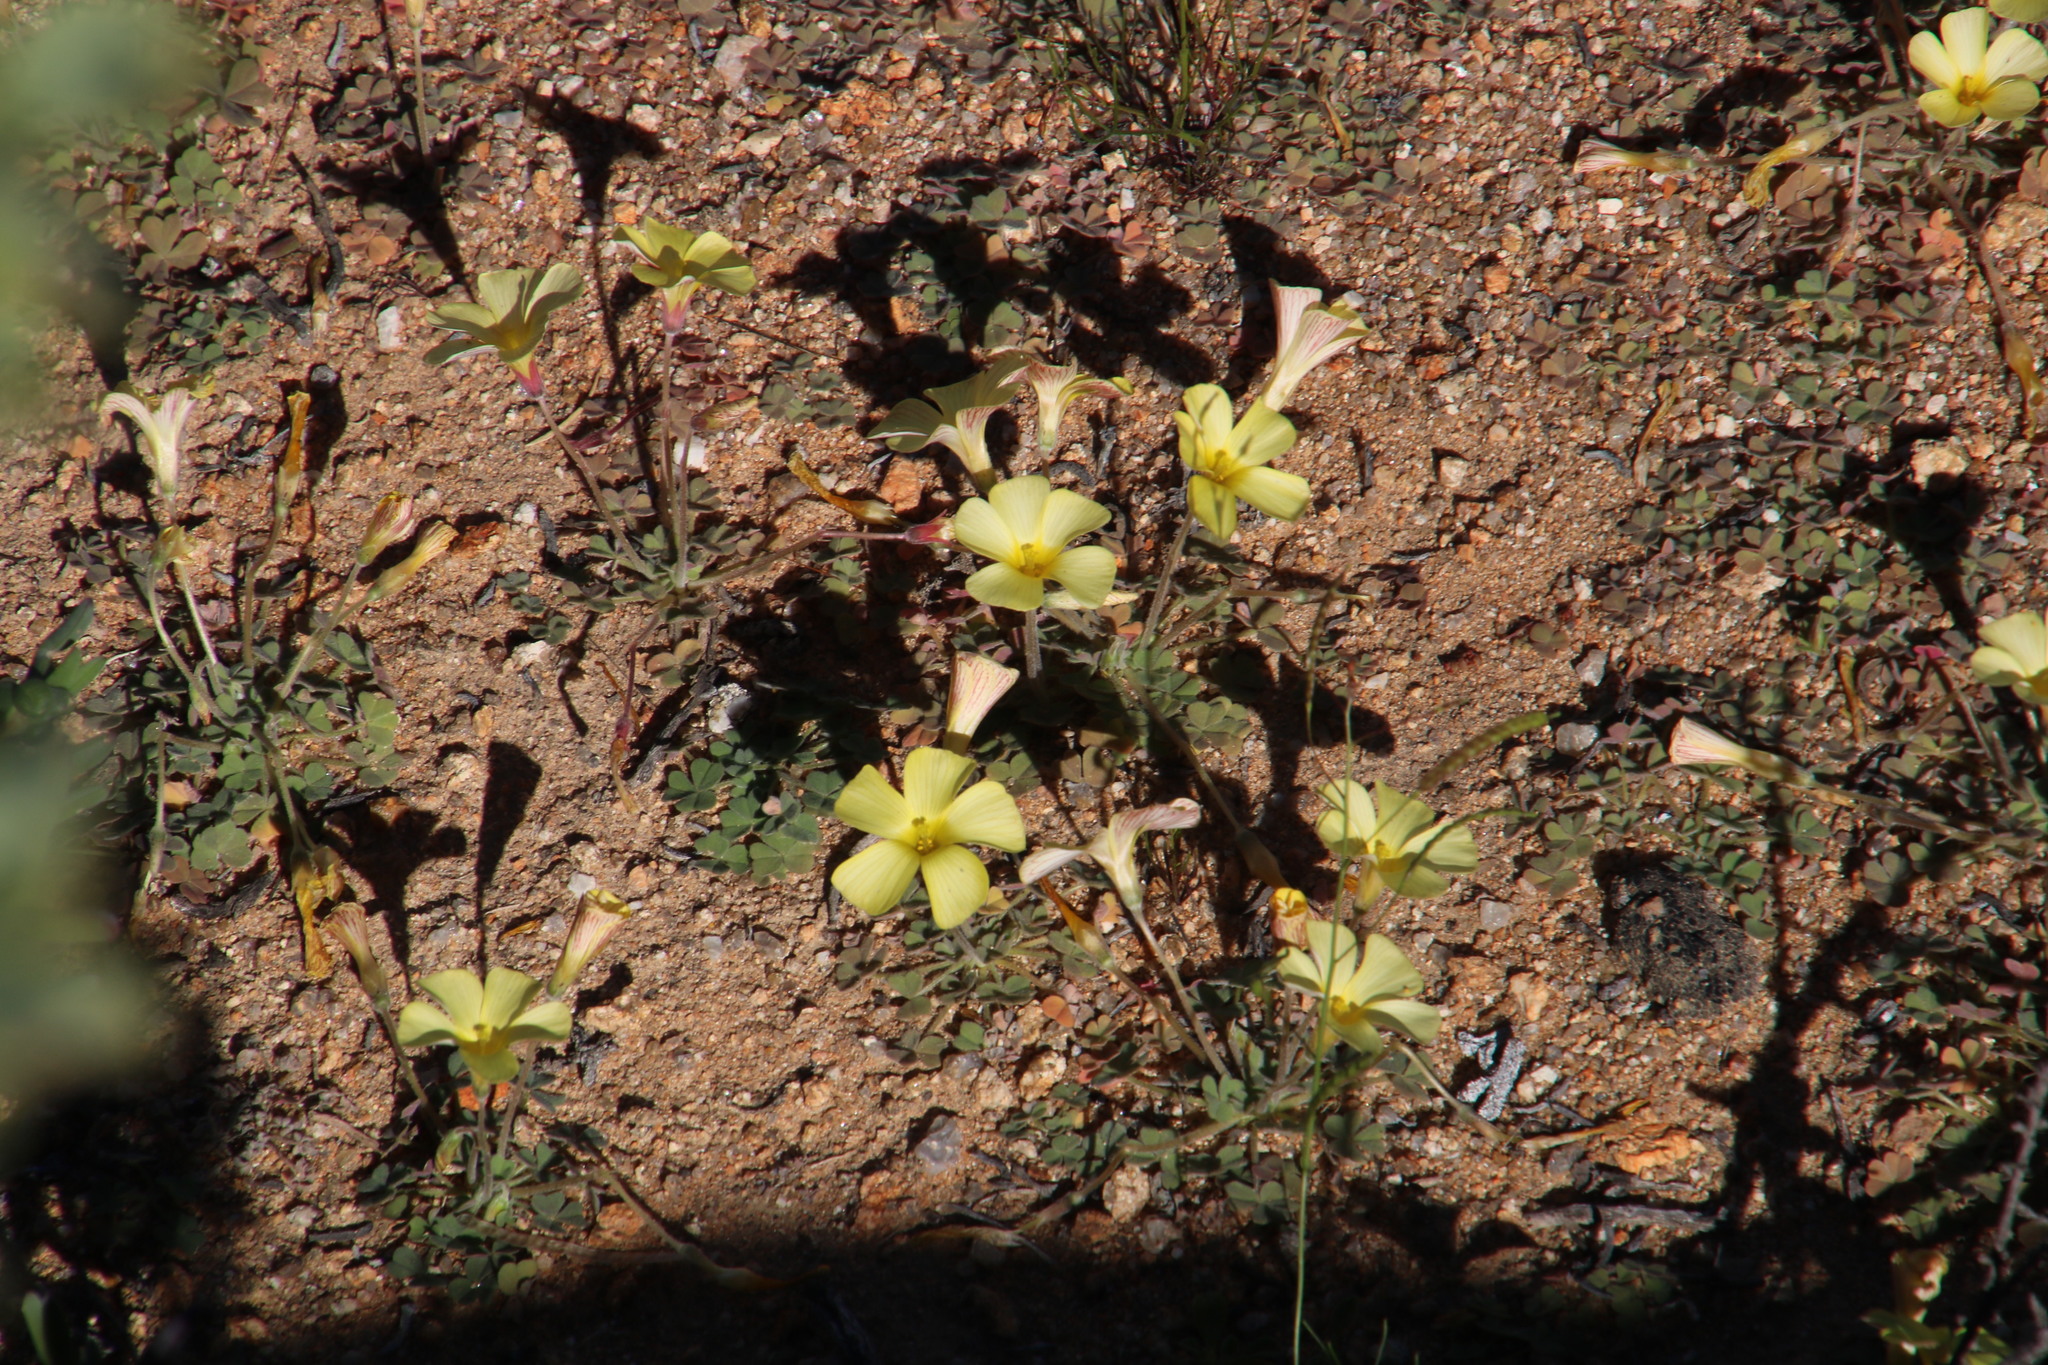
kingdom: Plantae
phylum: Tracheophyta
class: Magnoliopsida
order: Oxalidales
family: Oxalidaceae
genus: Oxalis
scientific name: Oxalis obtusa
